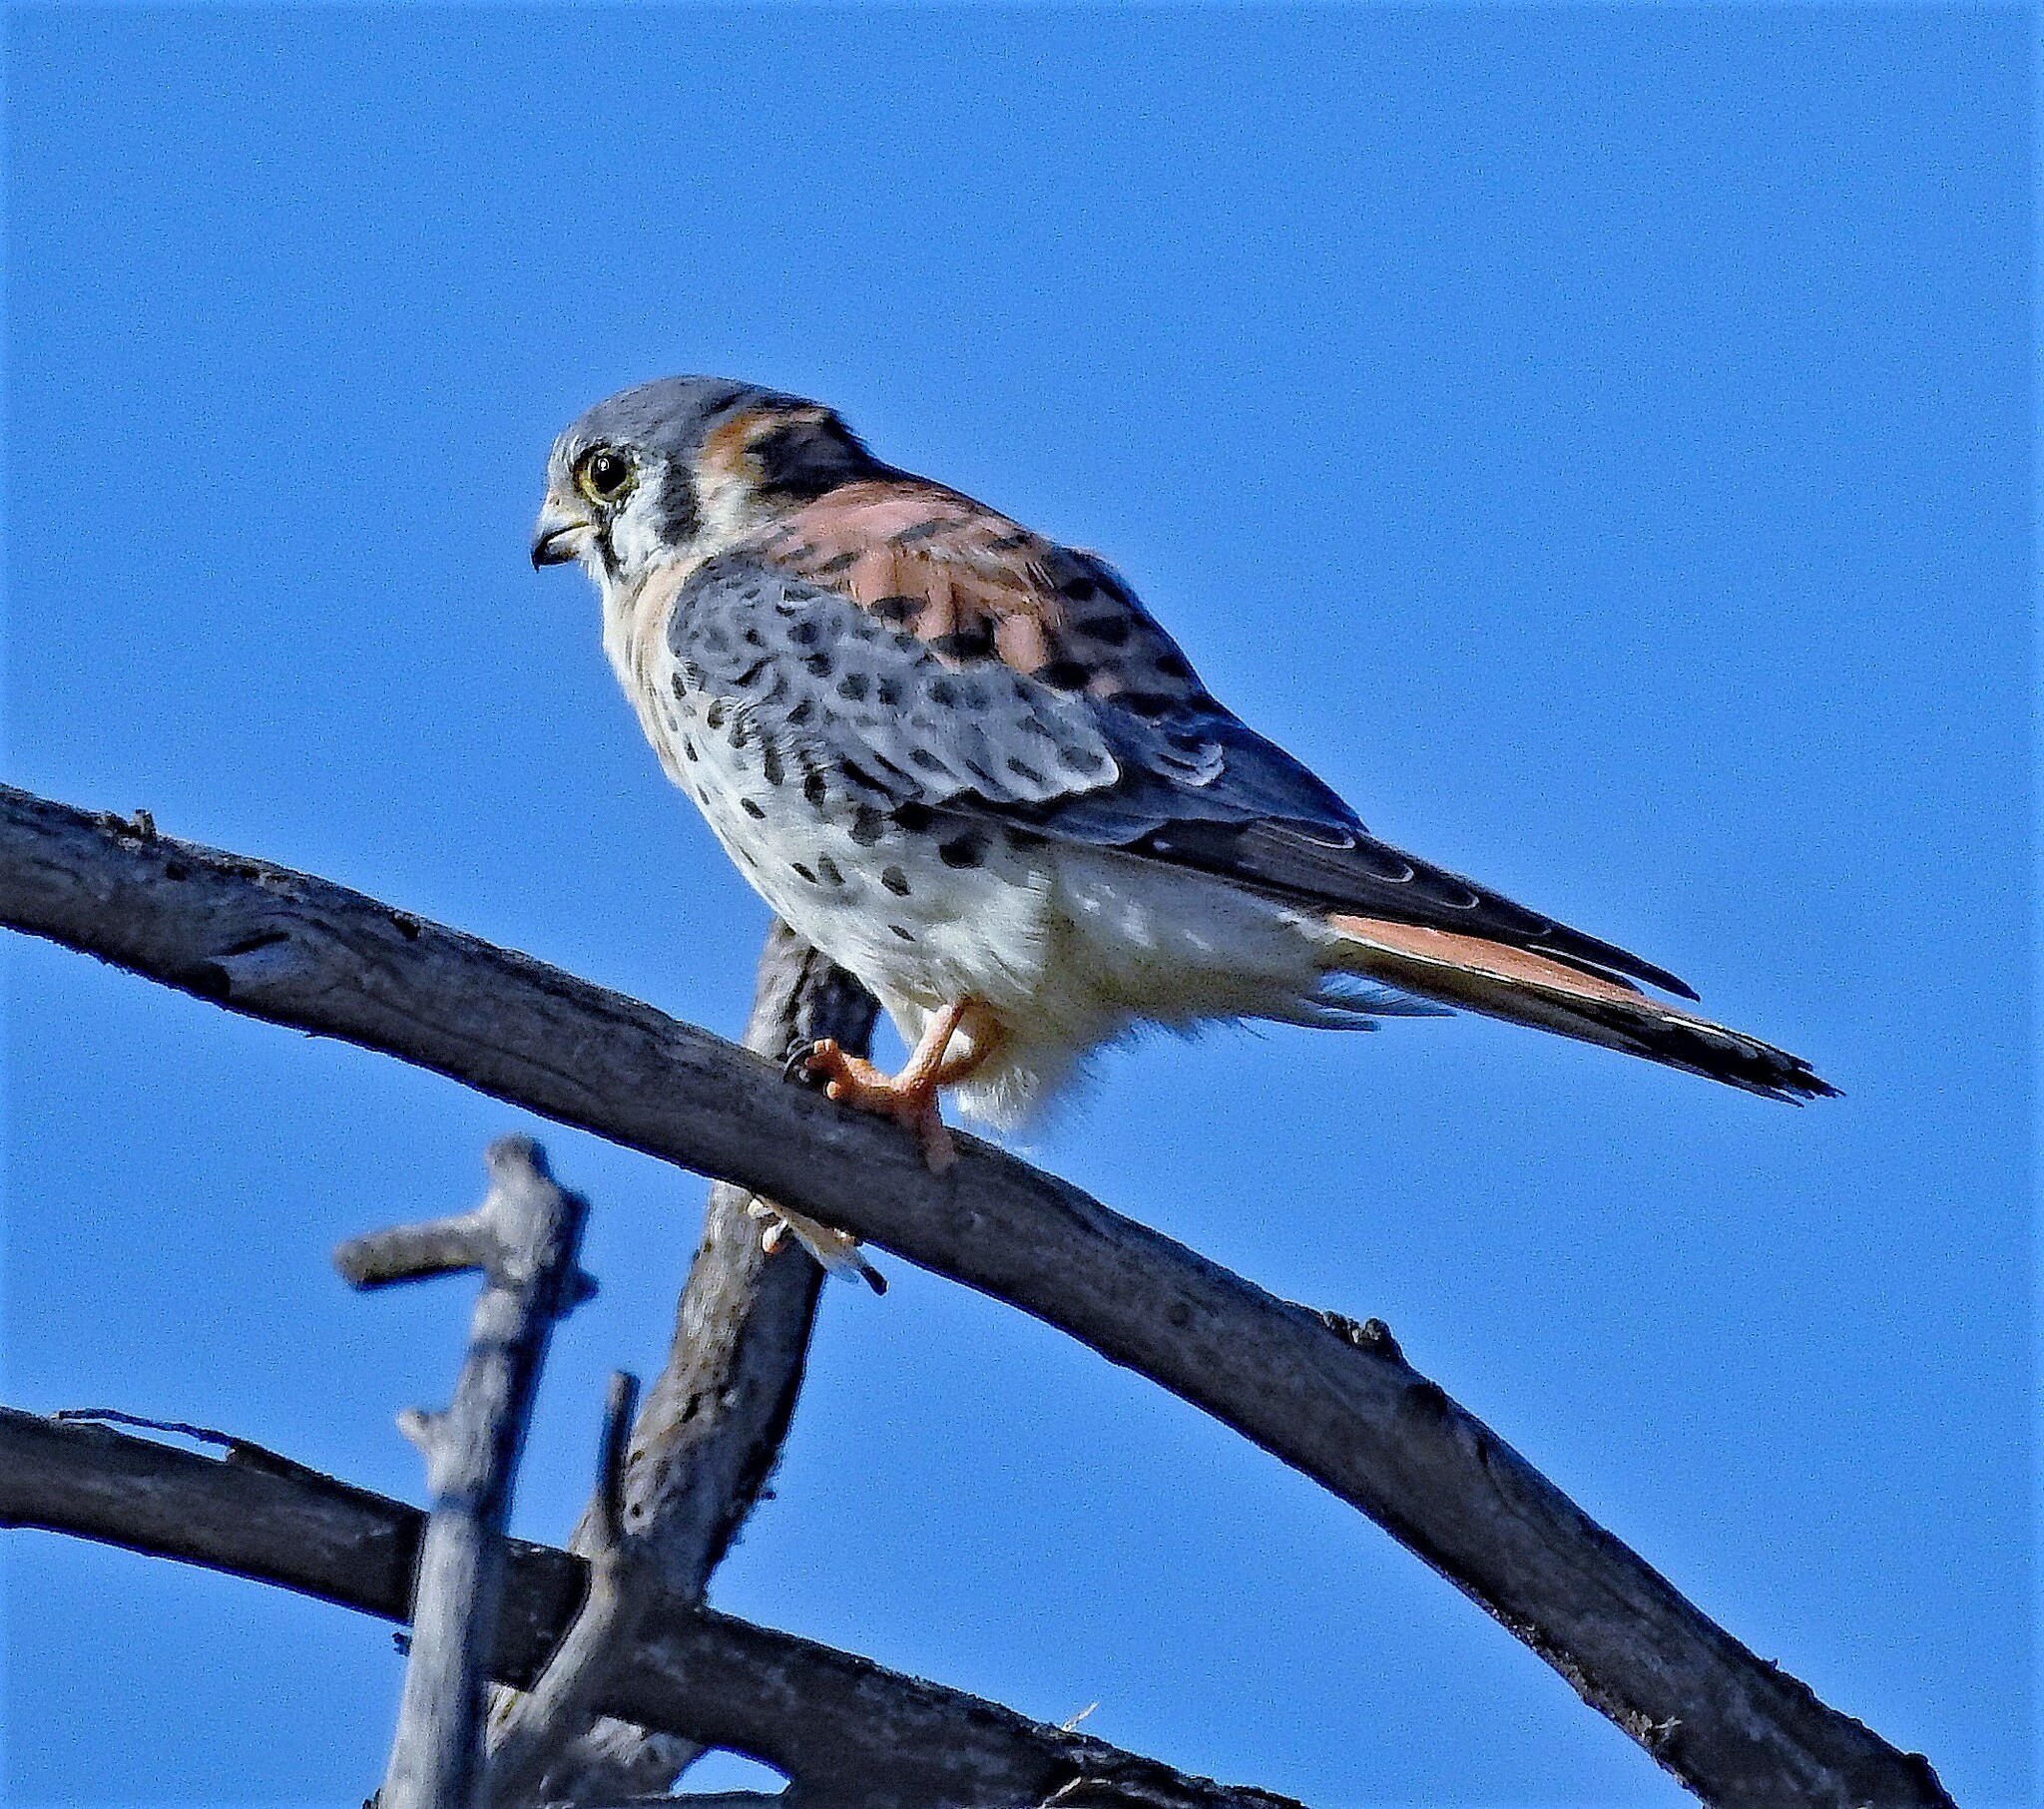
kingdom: Animalia
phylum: Chordata
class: Aves
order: Falconiformes
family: Falconidae
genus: Falco
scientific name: Falco sparverius
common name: American kestrel
